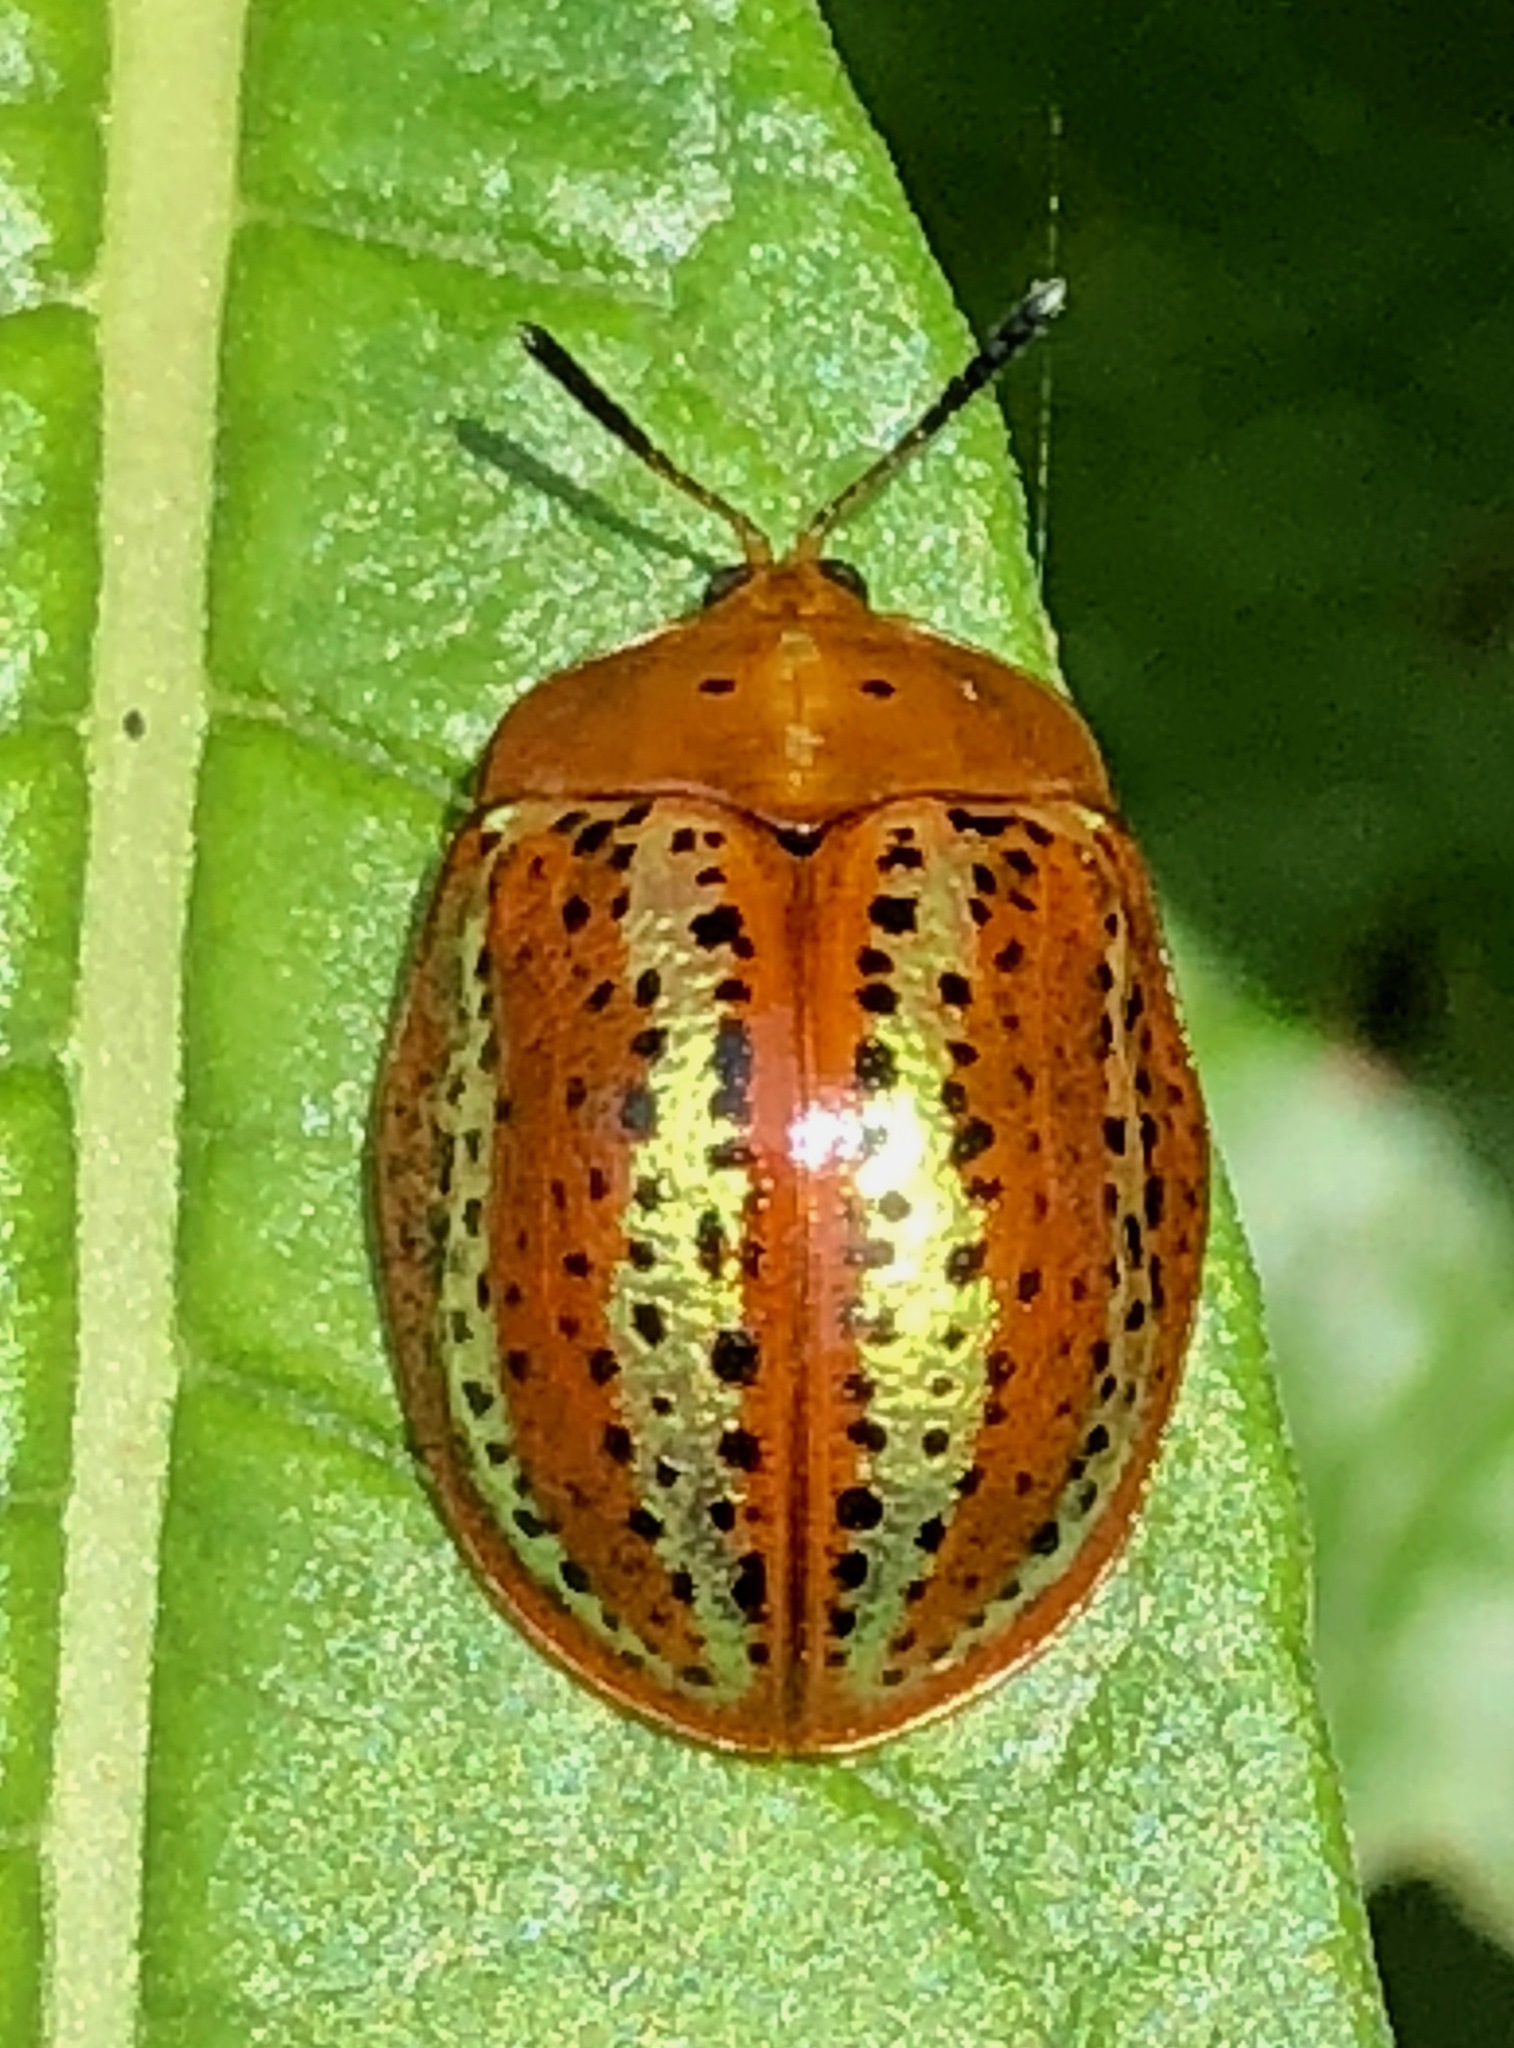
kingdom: Animalia
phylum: Arthropoda
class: Insecta
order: Coleoptera
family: Chrysomelidae
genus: Chelymorpha
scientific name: Chelymorpha alternans
